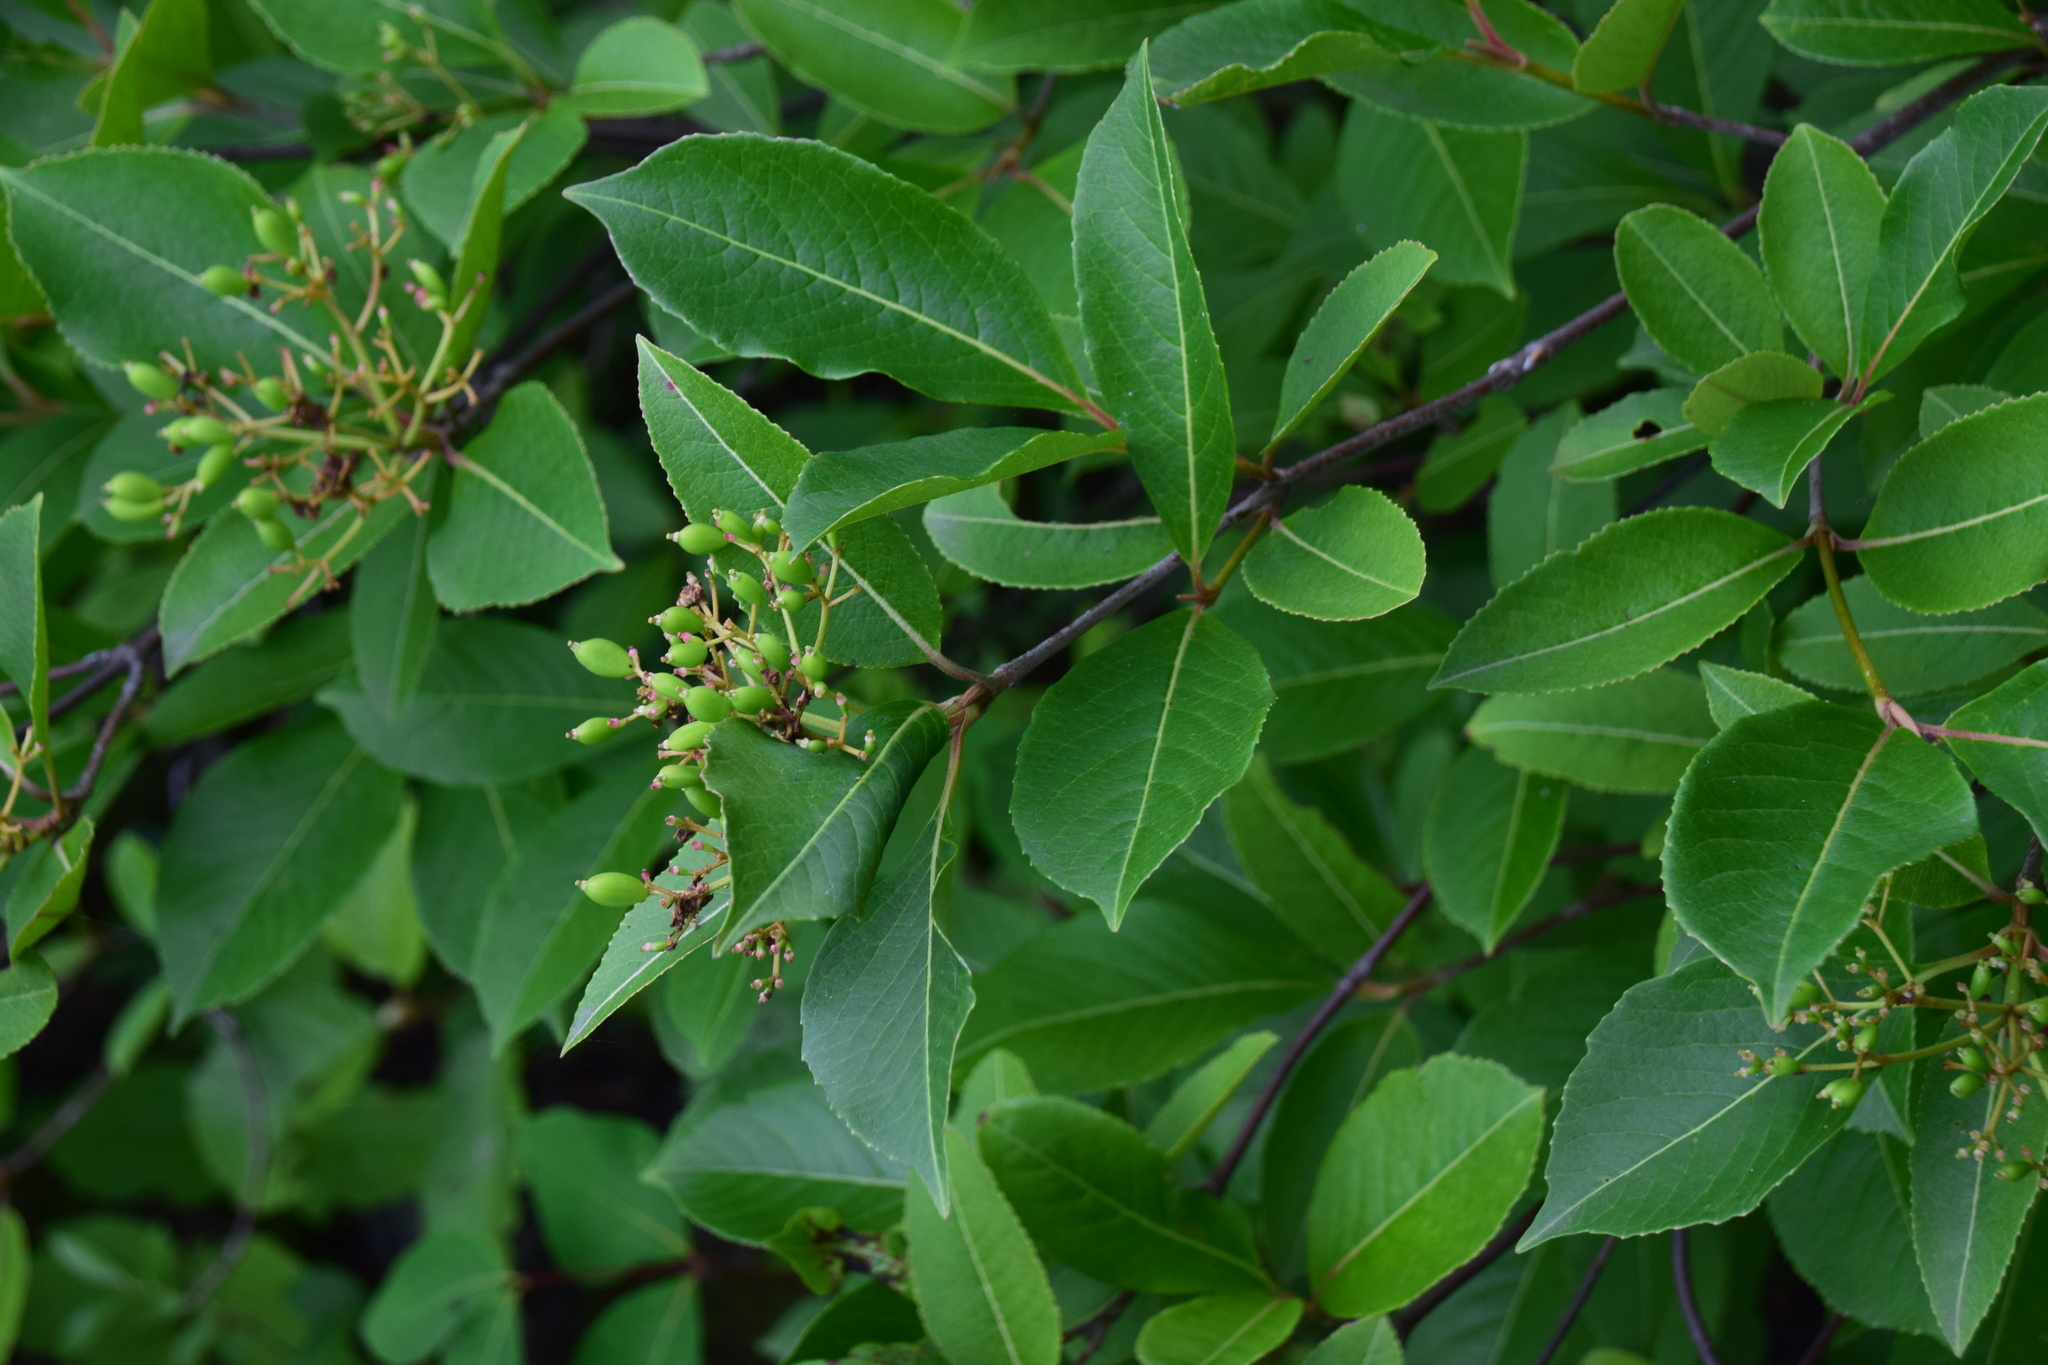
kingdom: Plantae
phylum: Tracheophyta
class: Magnoliopsida
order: Dipsacales
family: Viburnaceae
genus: Viburnum
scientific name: Viburnum cassinoides
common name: Swamp haw
